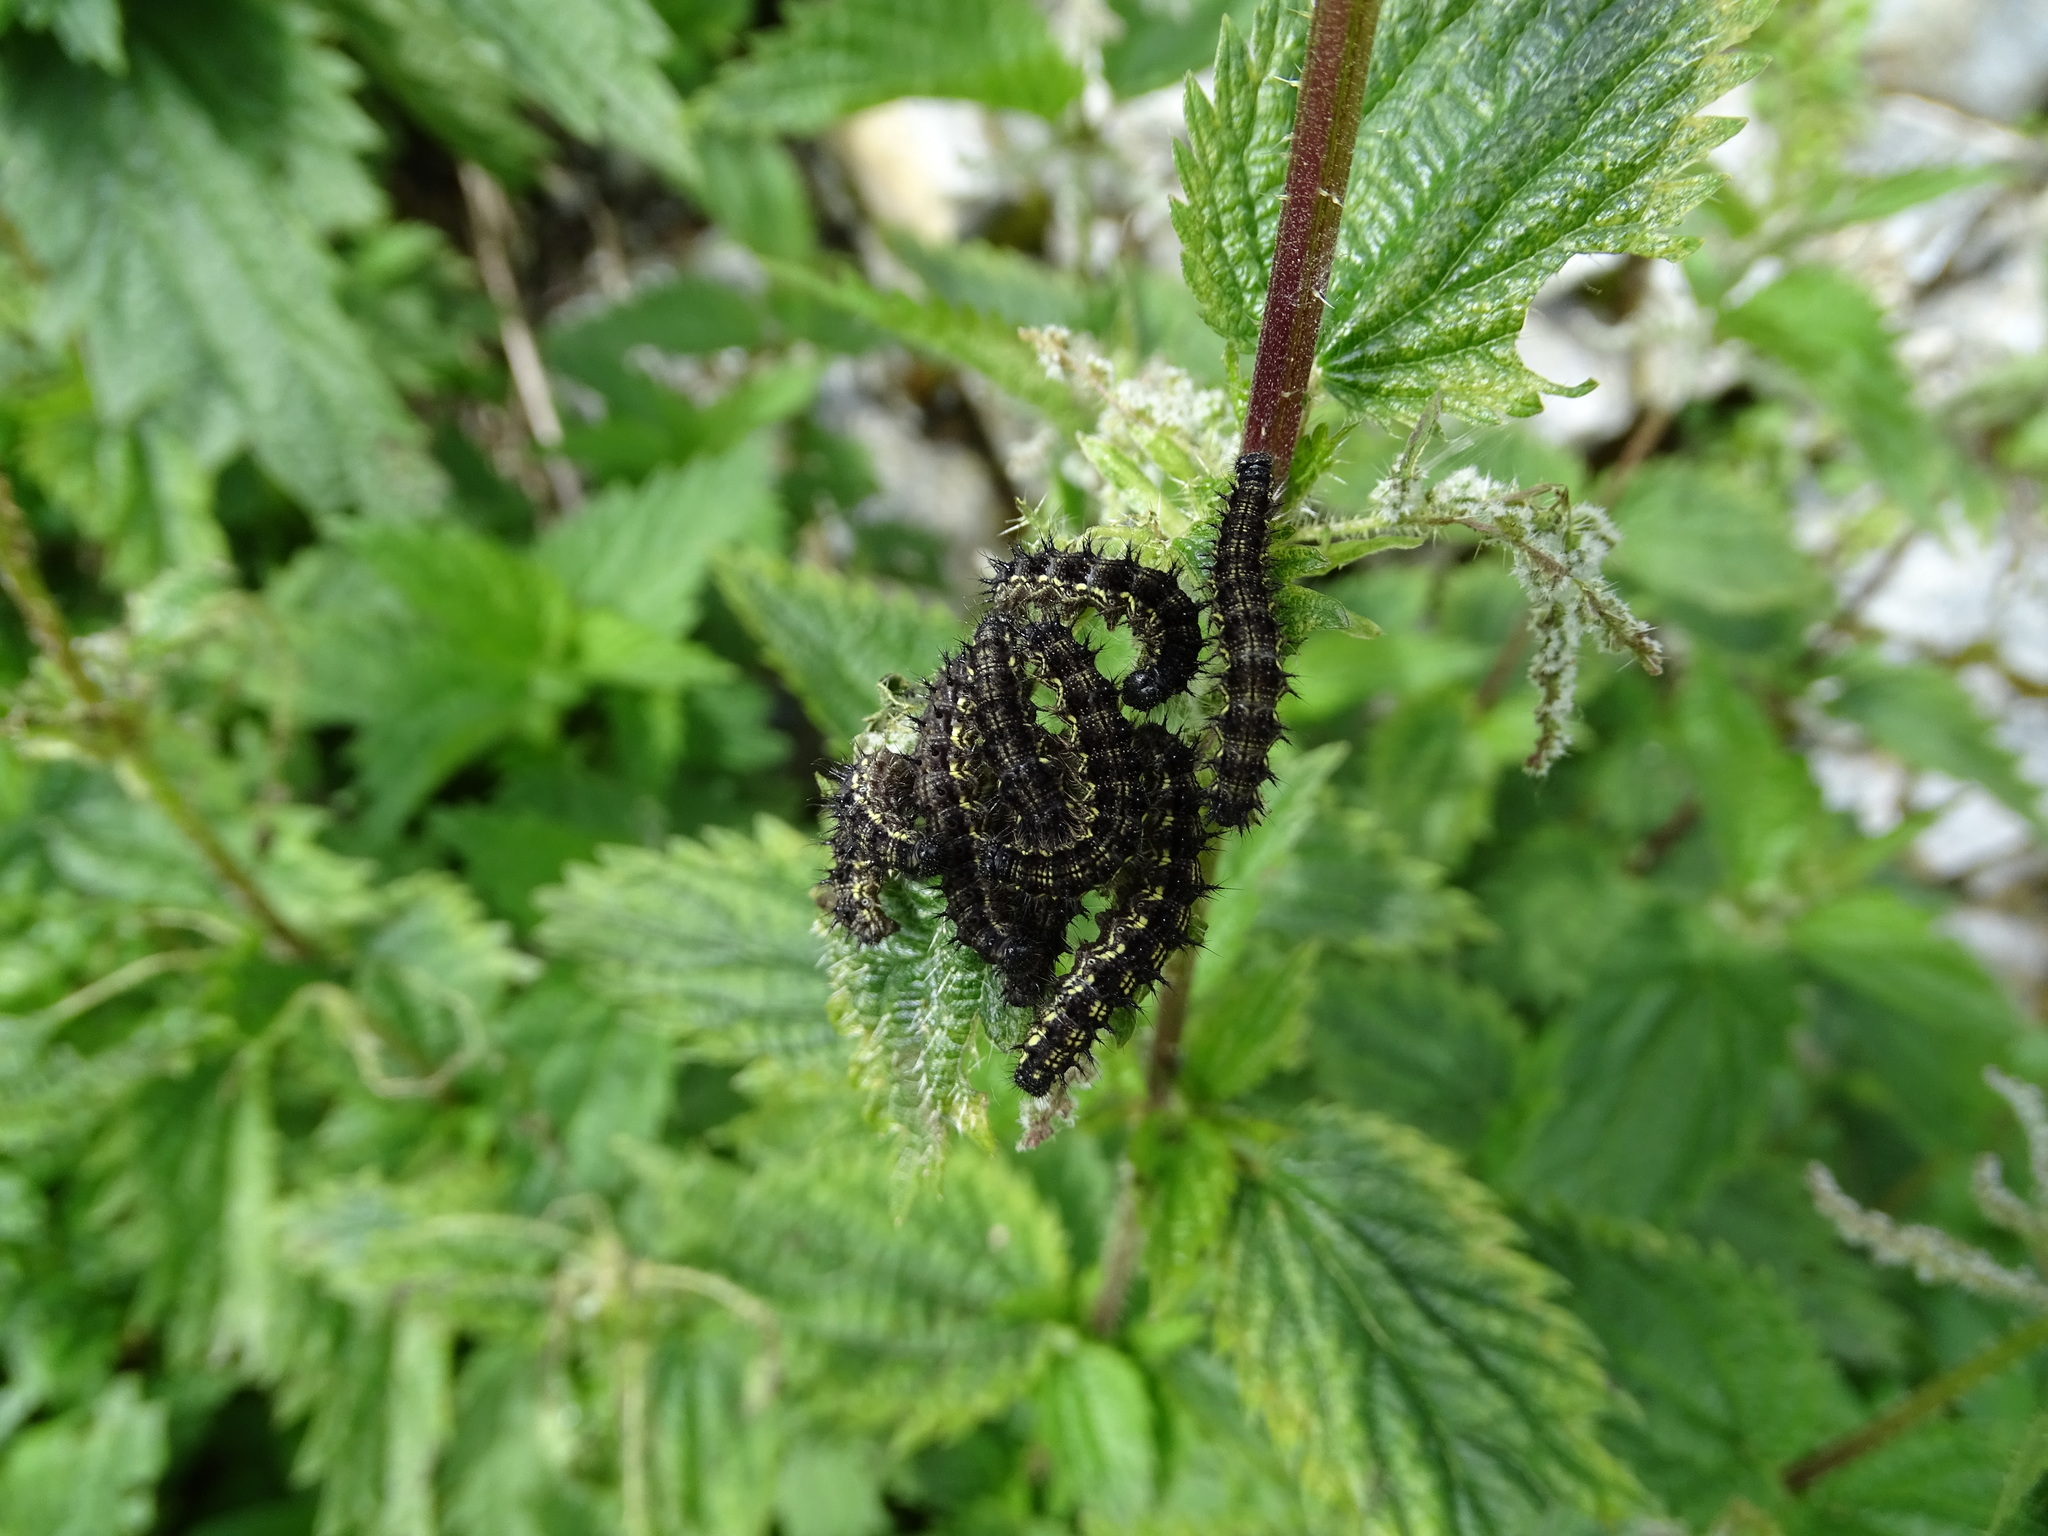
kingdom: Animalia
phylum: Arthropoda
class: Insecta
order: Lepidoptera
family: Nymphalidae
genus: Aglais
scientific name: Aglais urticae
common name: Small tortoiseshell
